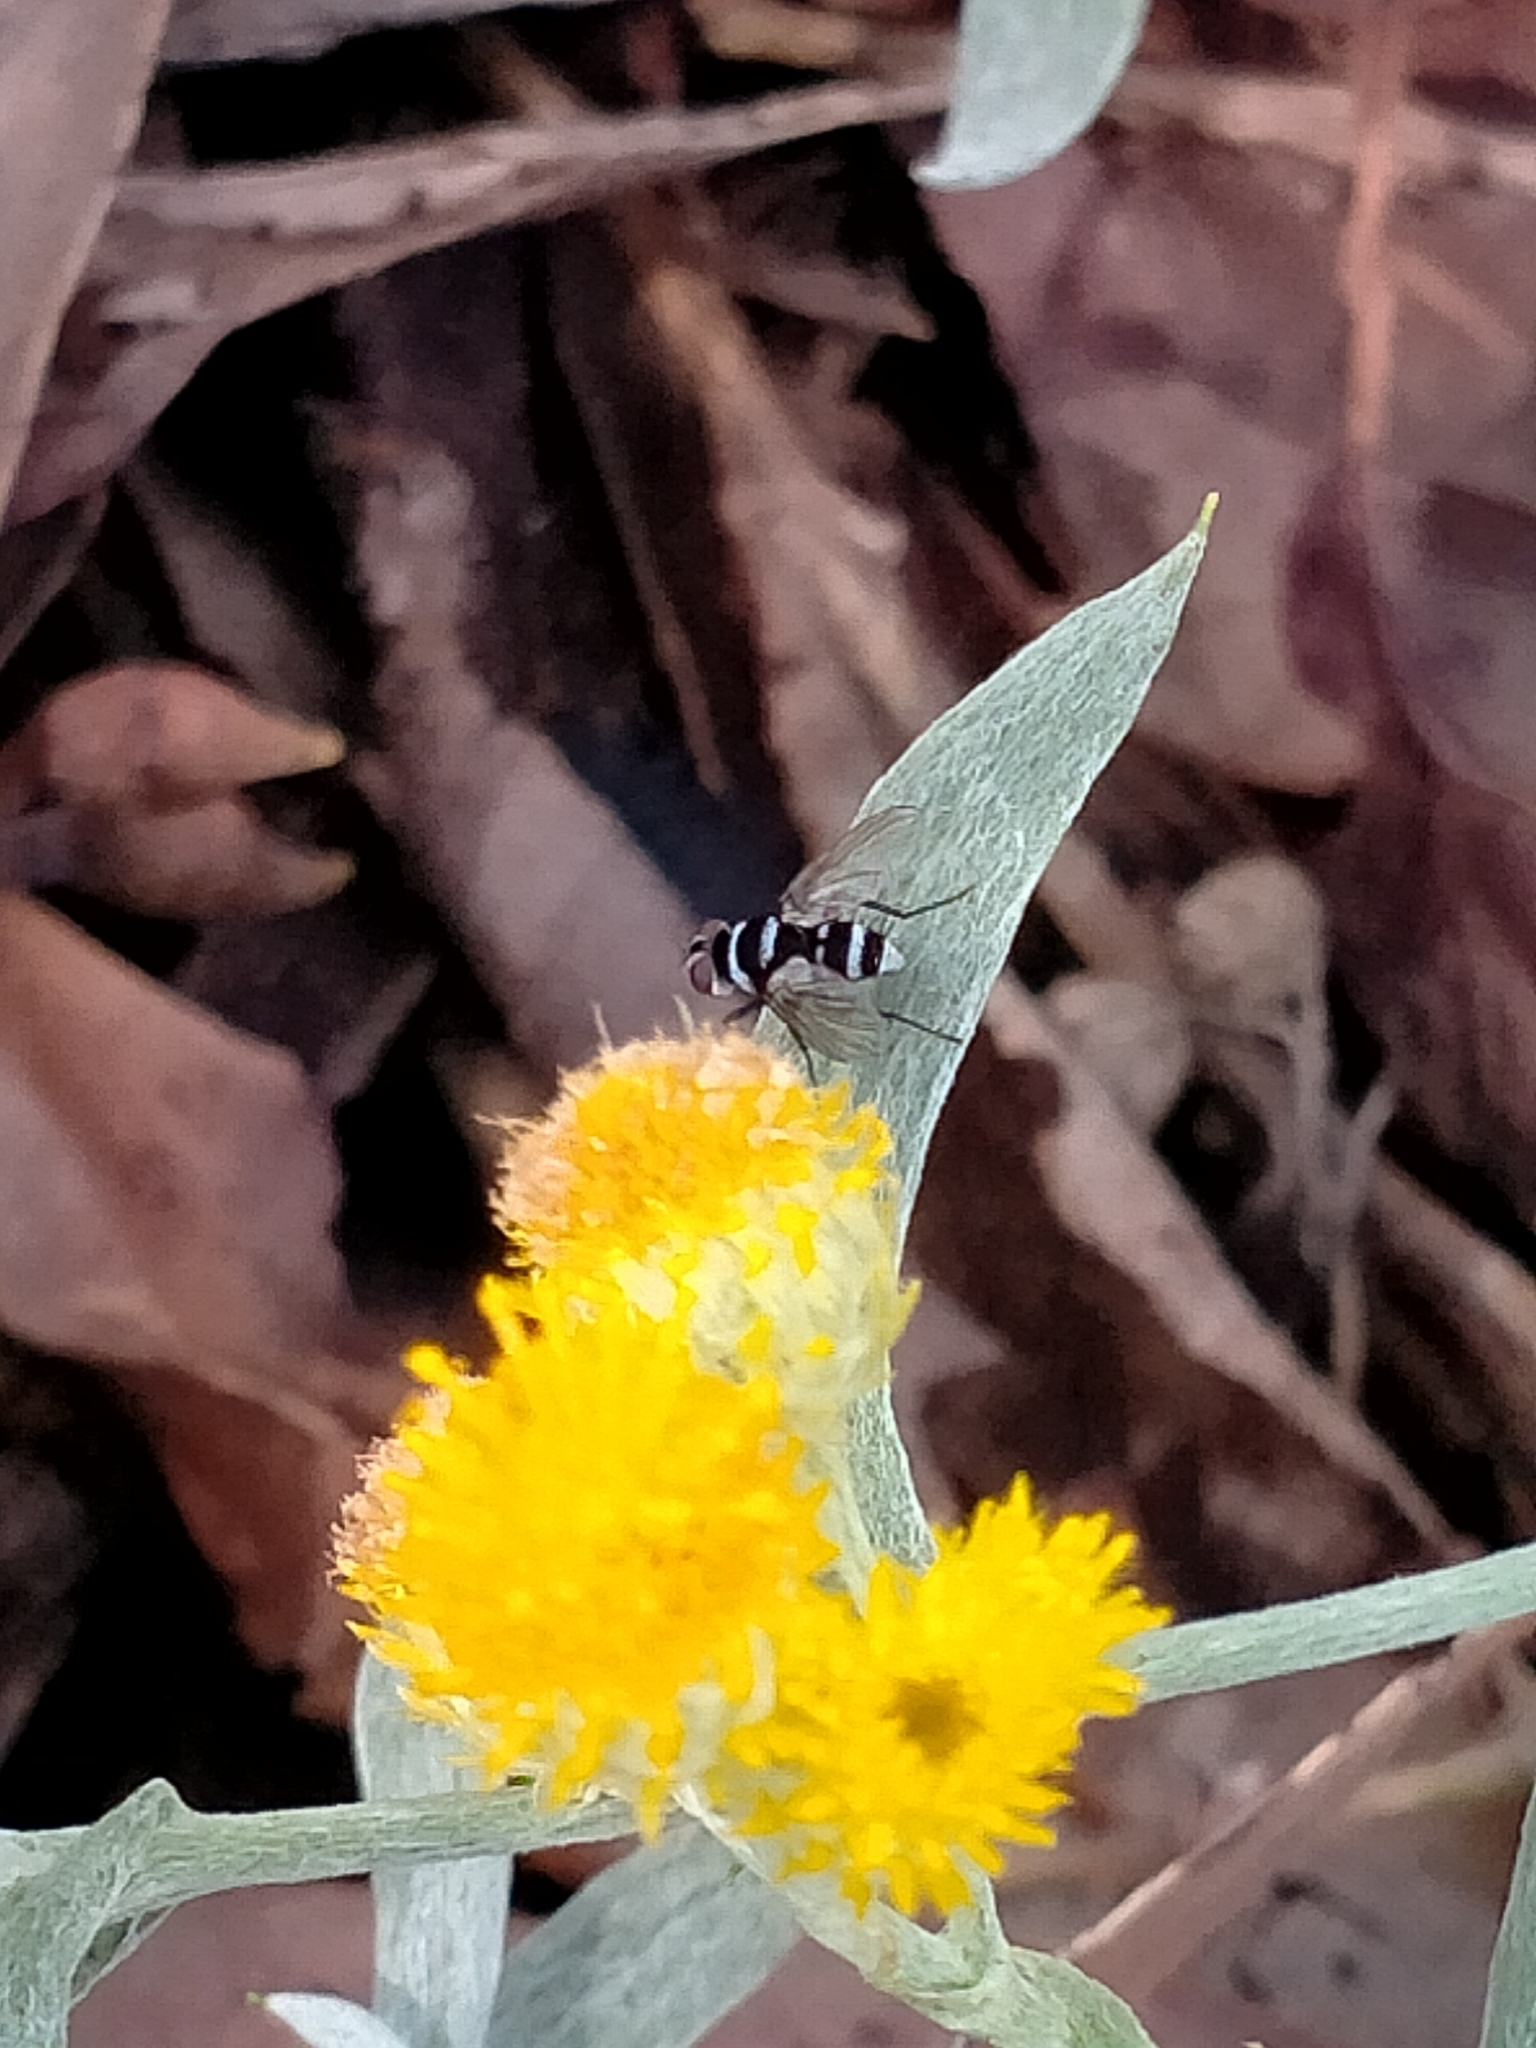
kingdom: Plantae
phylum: Tracheophyta
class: Magnoliopsida
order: Asterales
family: Asteraceae
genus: Chrysocephalum
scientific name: Chrysocephalum apiculatum
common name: Common everlasting
